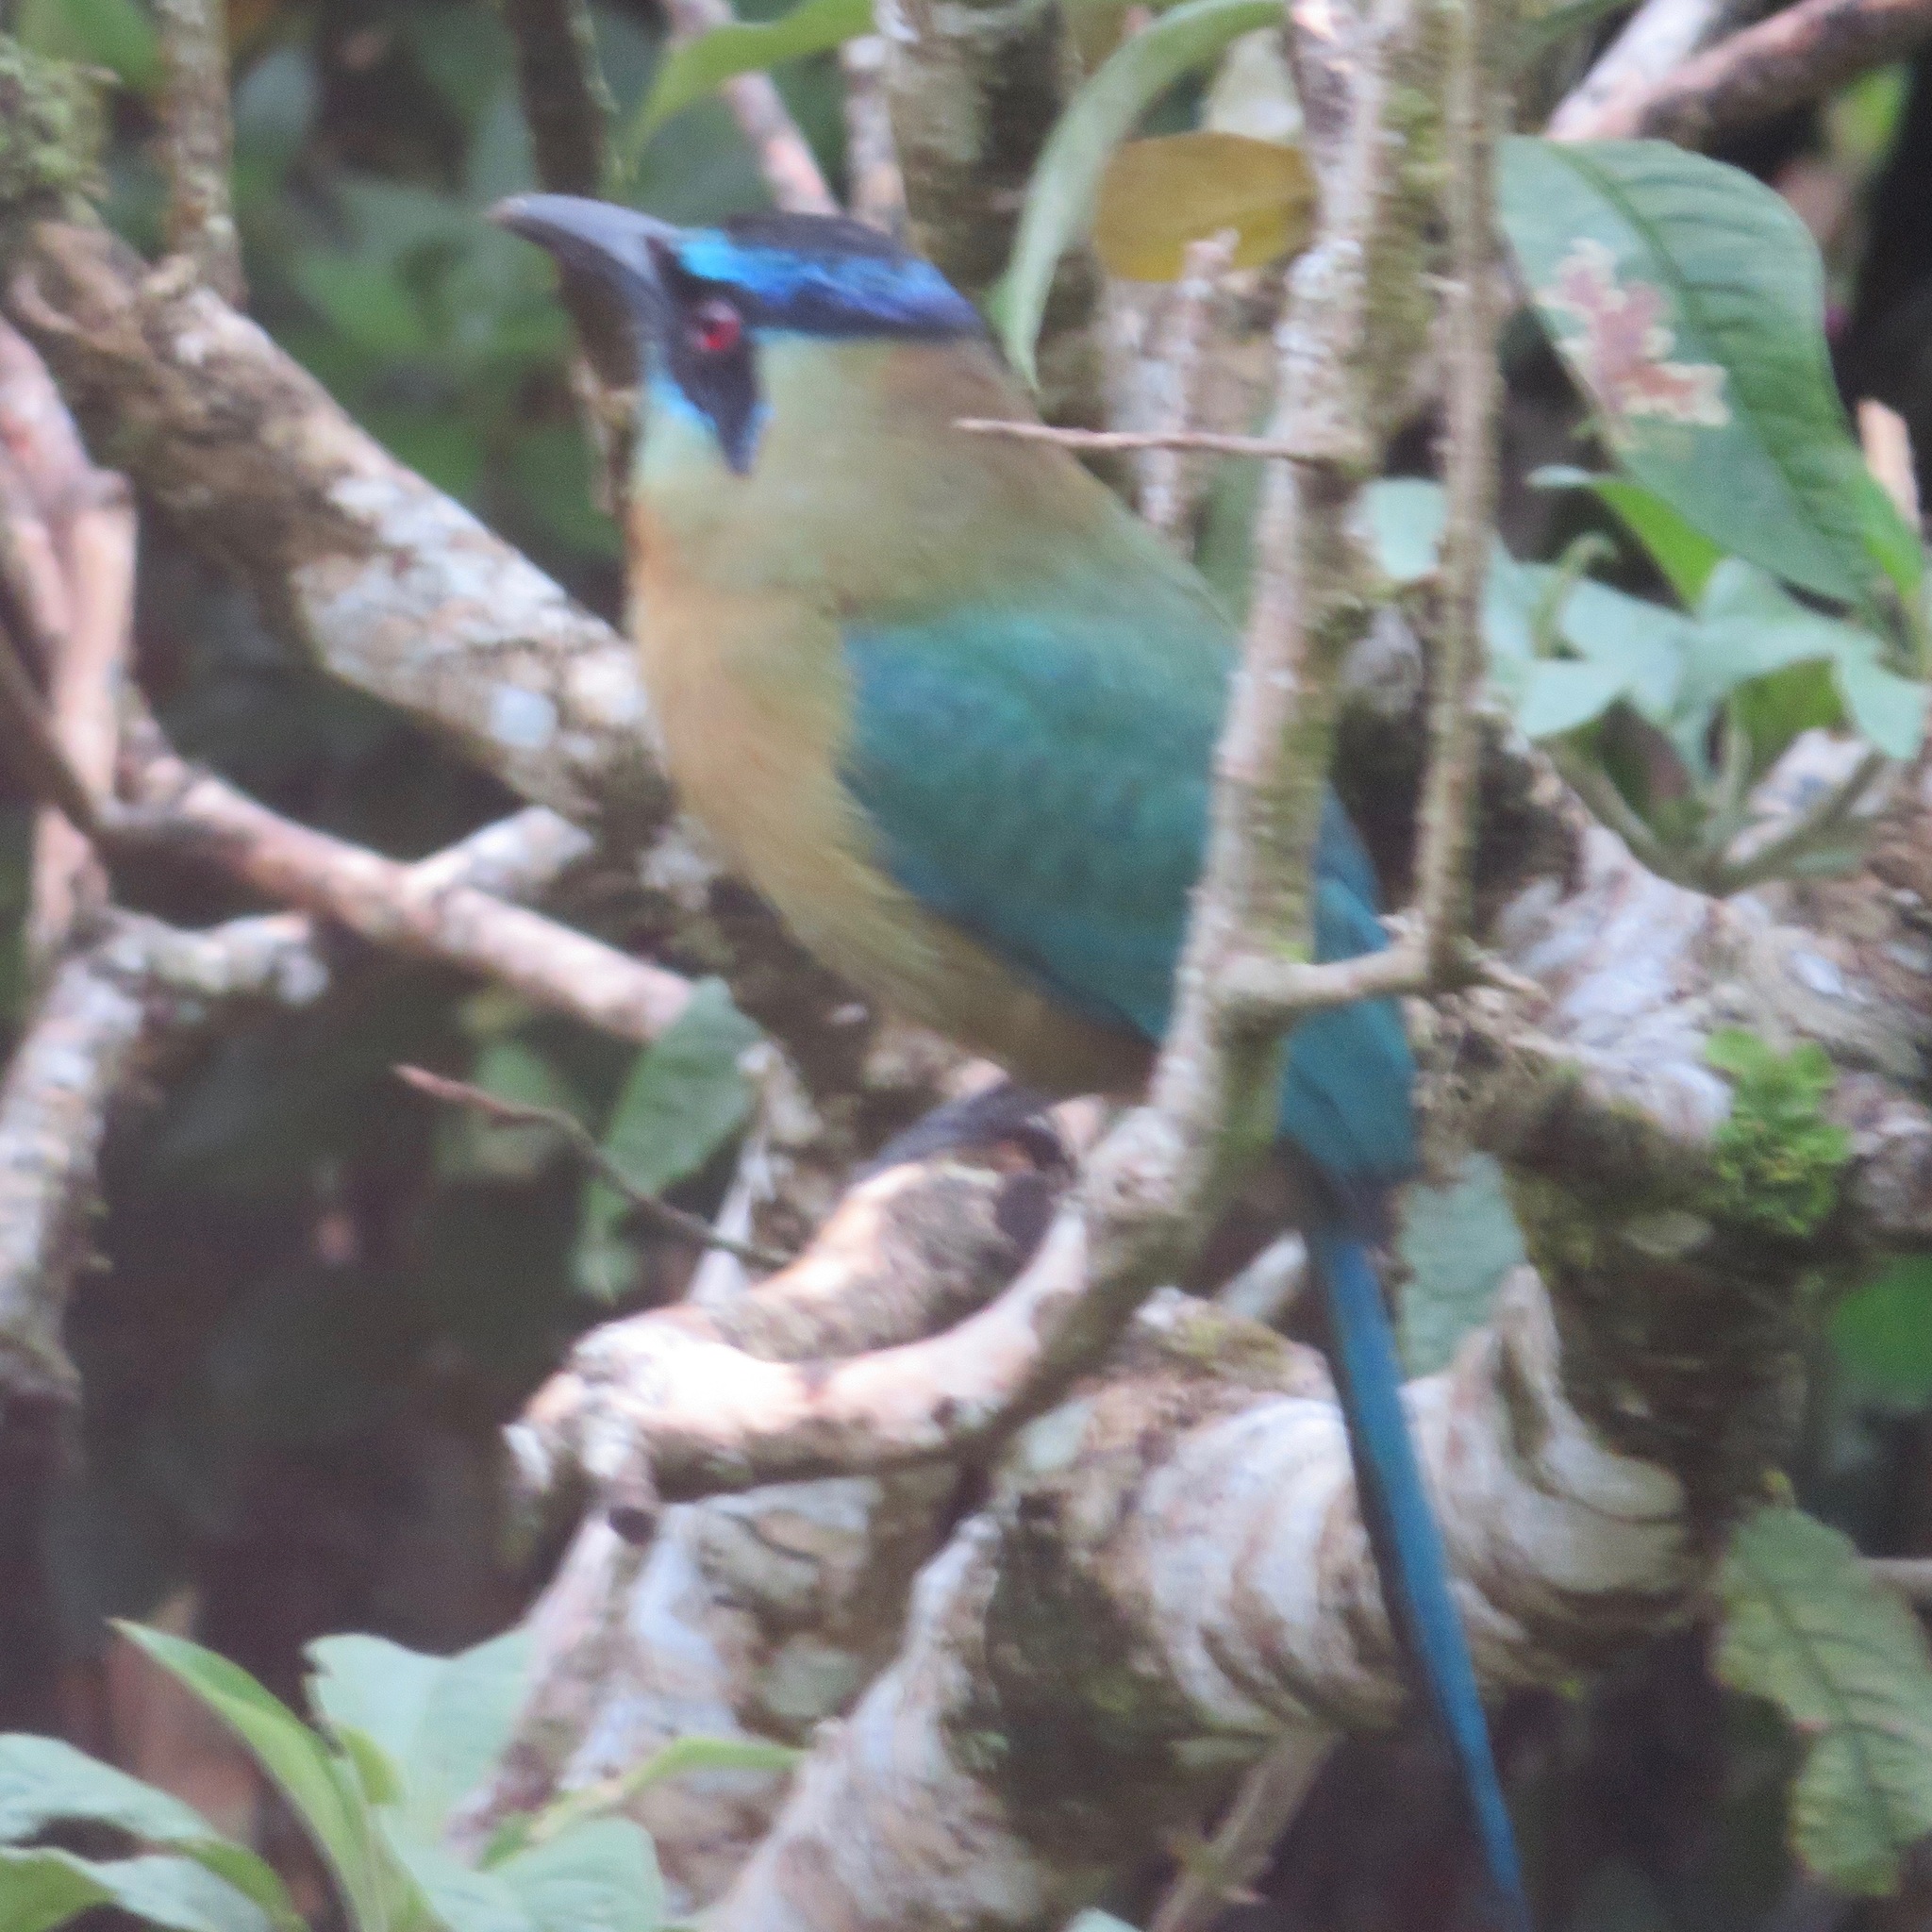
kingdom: Animalia
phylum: Chordata
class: Aves
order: Coraciiformes
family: Momotidae
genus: Momotus
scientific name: Momotus lessonii
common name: Lesson's motmot
